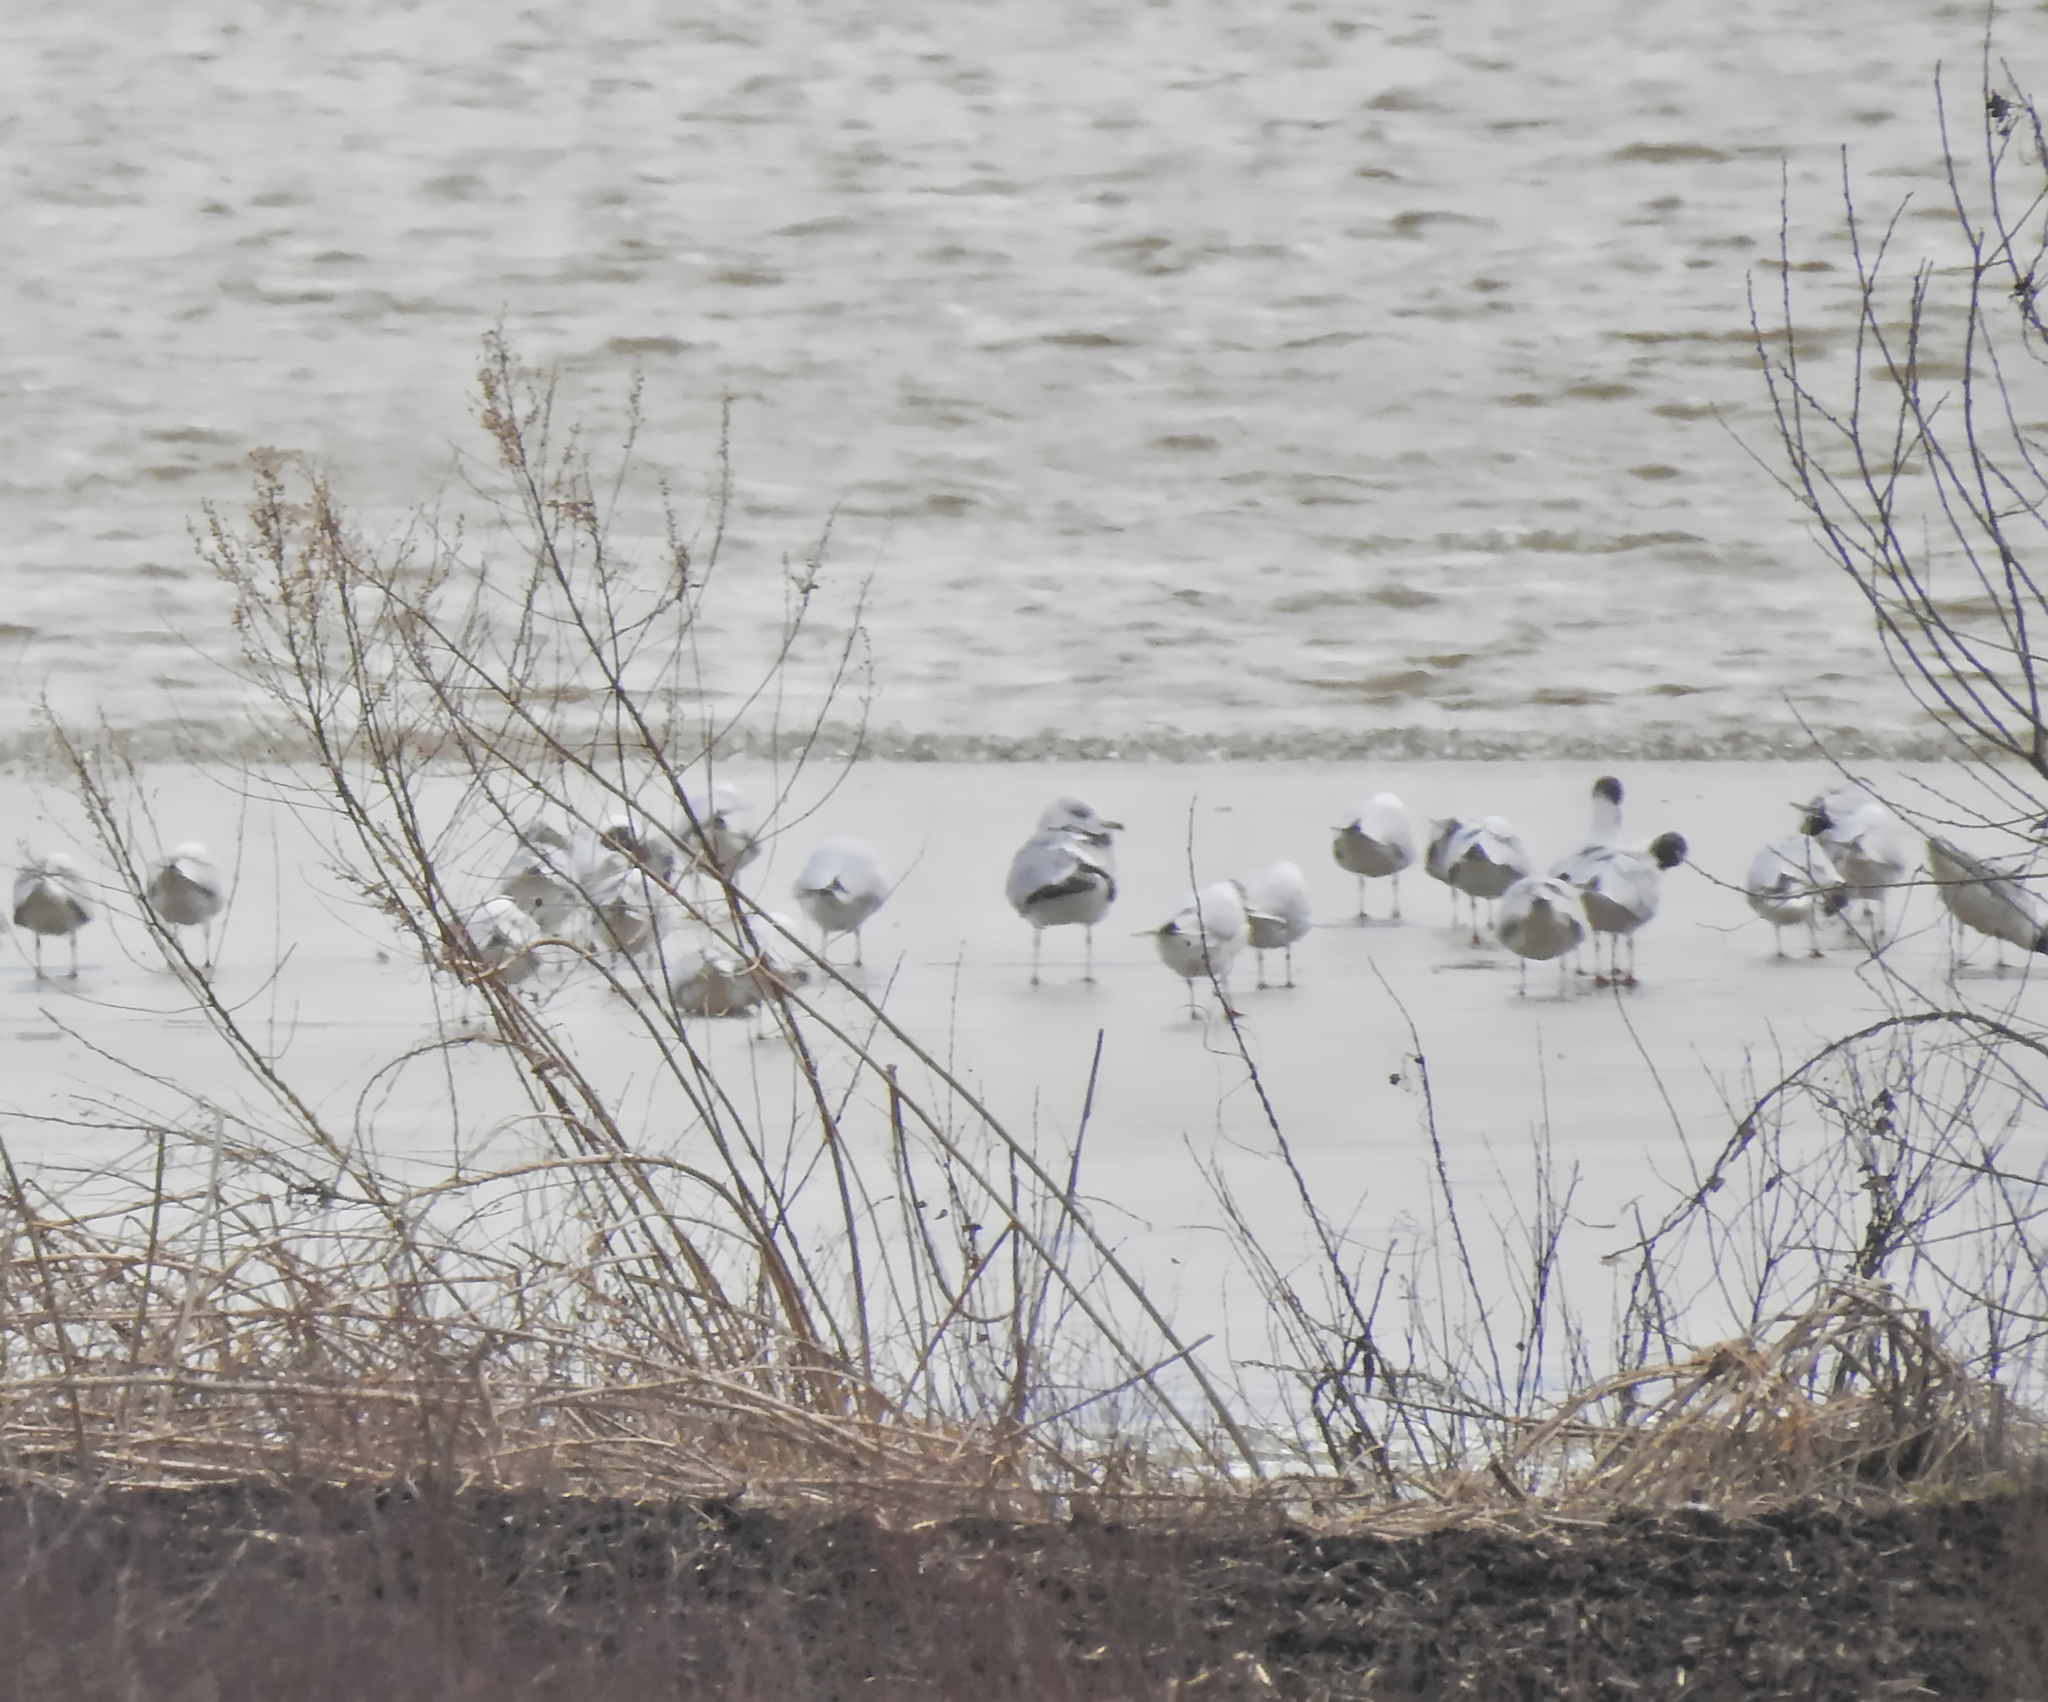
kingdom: Animalia
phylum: Chordata
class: Aves
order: Charadriiformes
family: Laridae
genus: Larus
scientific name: Larus canus
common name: Mew gull
